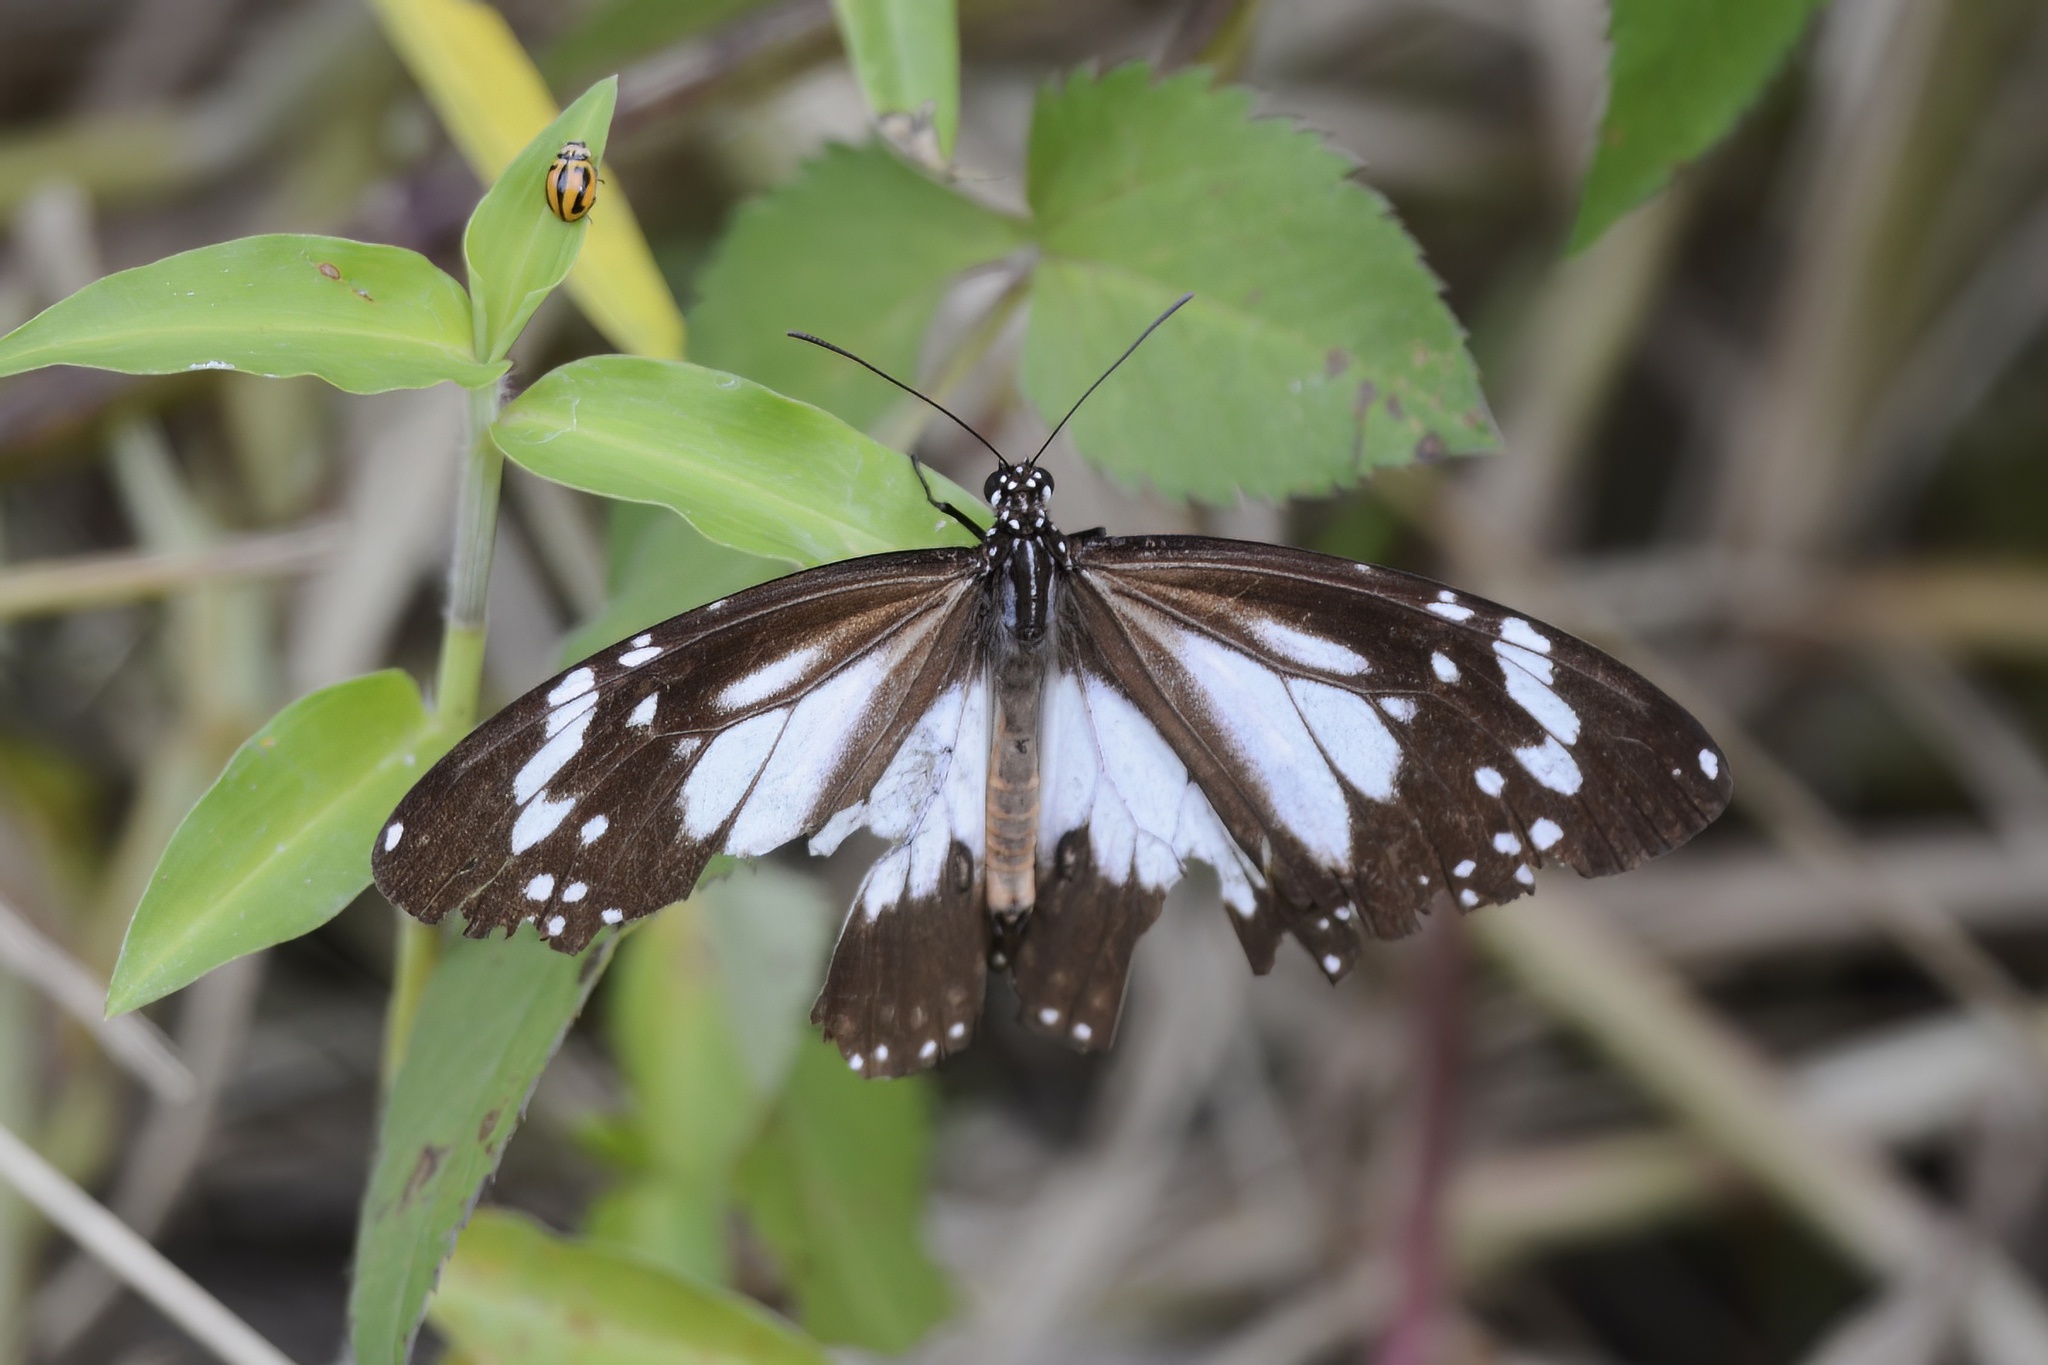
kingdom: Animalia
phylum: Arthropoda
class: Insecta
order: Lepidoptera
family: Nymphalidae
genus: Danaus
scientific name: Danaus affinis
